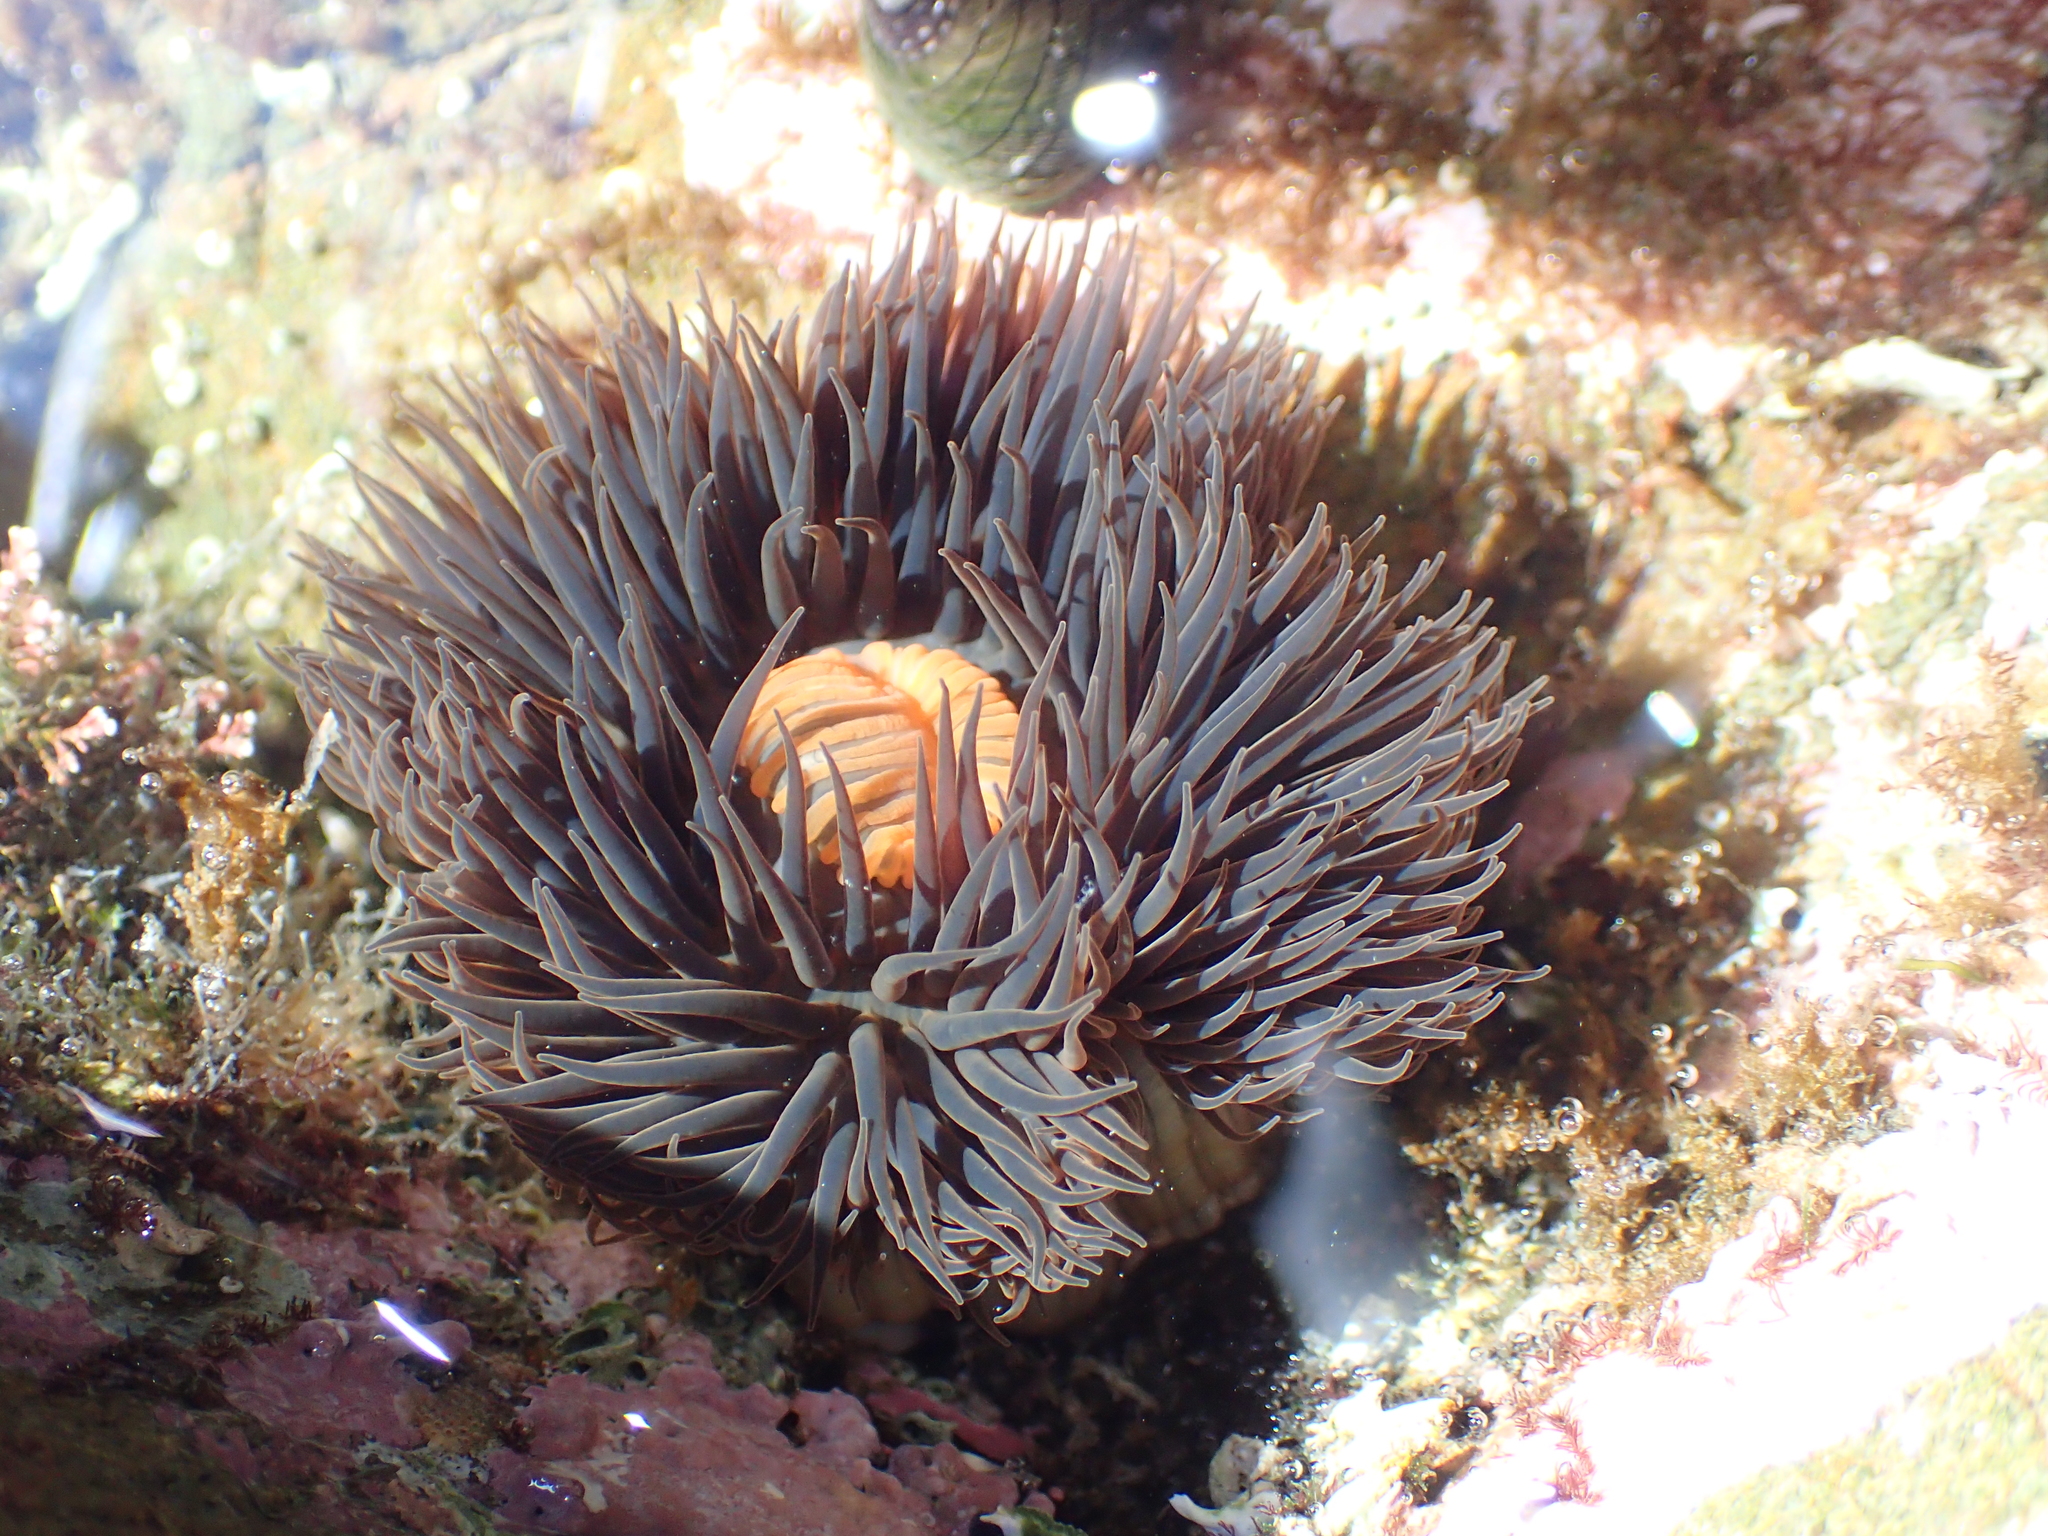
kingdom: Animalia
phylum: Cnidaria
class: Anthozoa
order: Actiniaria
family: Diadumenidae
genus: Diadumene
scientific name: Diadumene neozelanica
